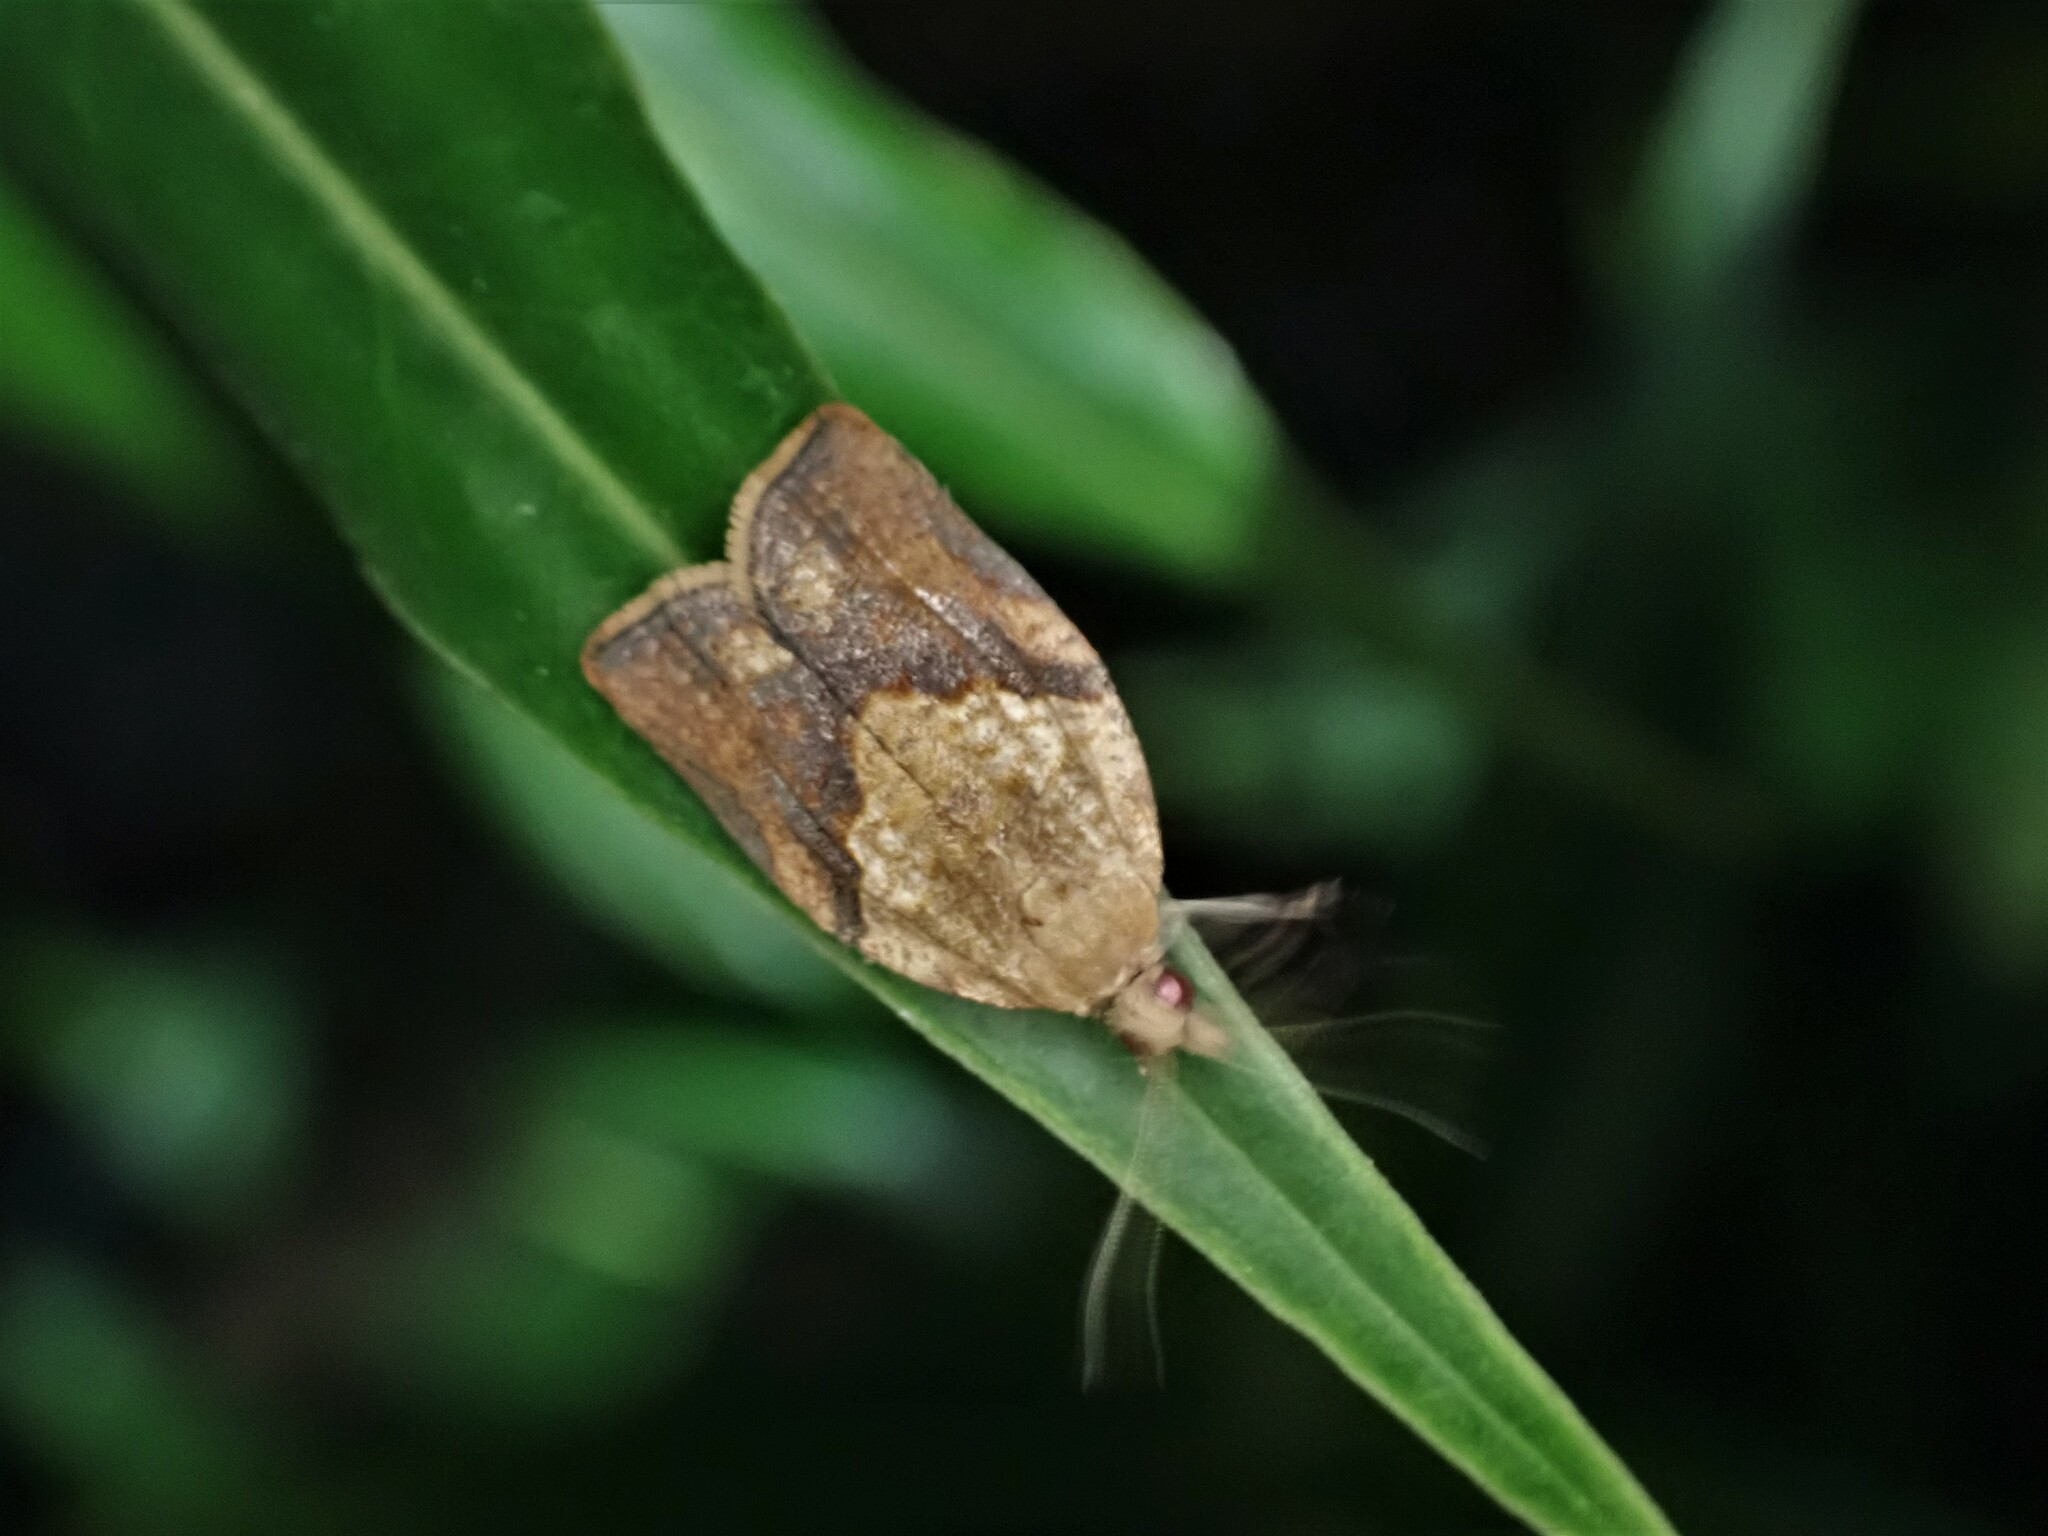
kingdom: Animalia
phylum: Arthropoda
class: Insecta
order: Lepidoptera
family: Tortricidae
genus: Epiphyas
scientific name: Epiphyas postvittana
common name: Light brown apple moth
